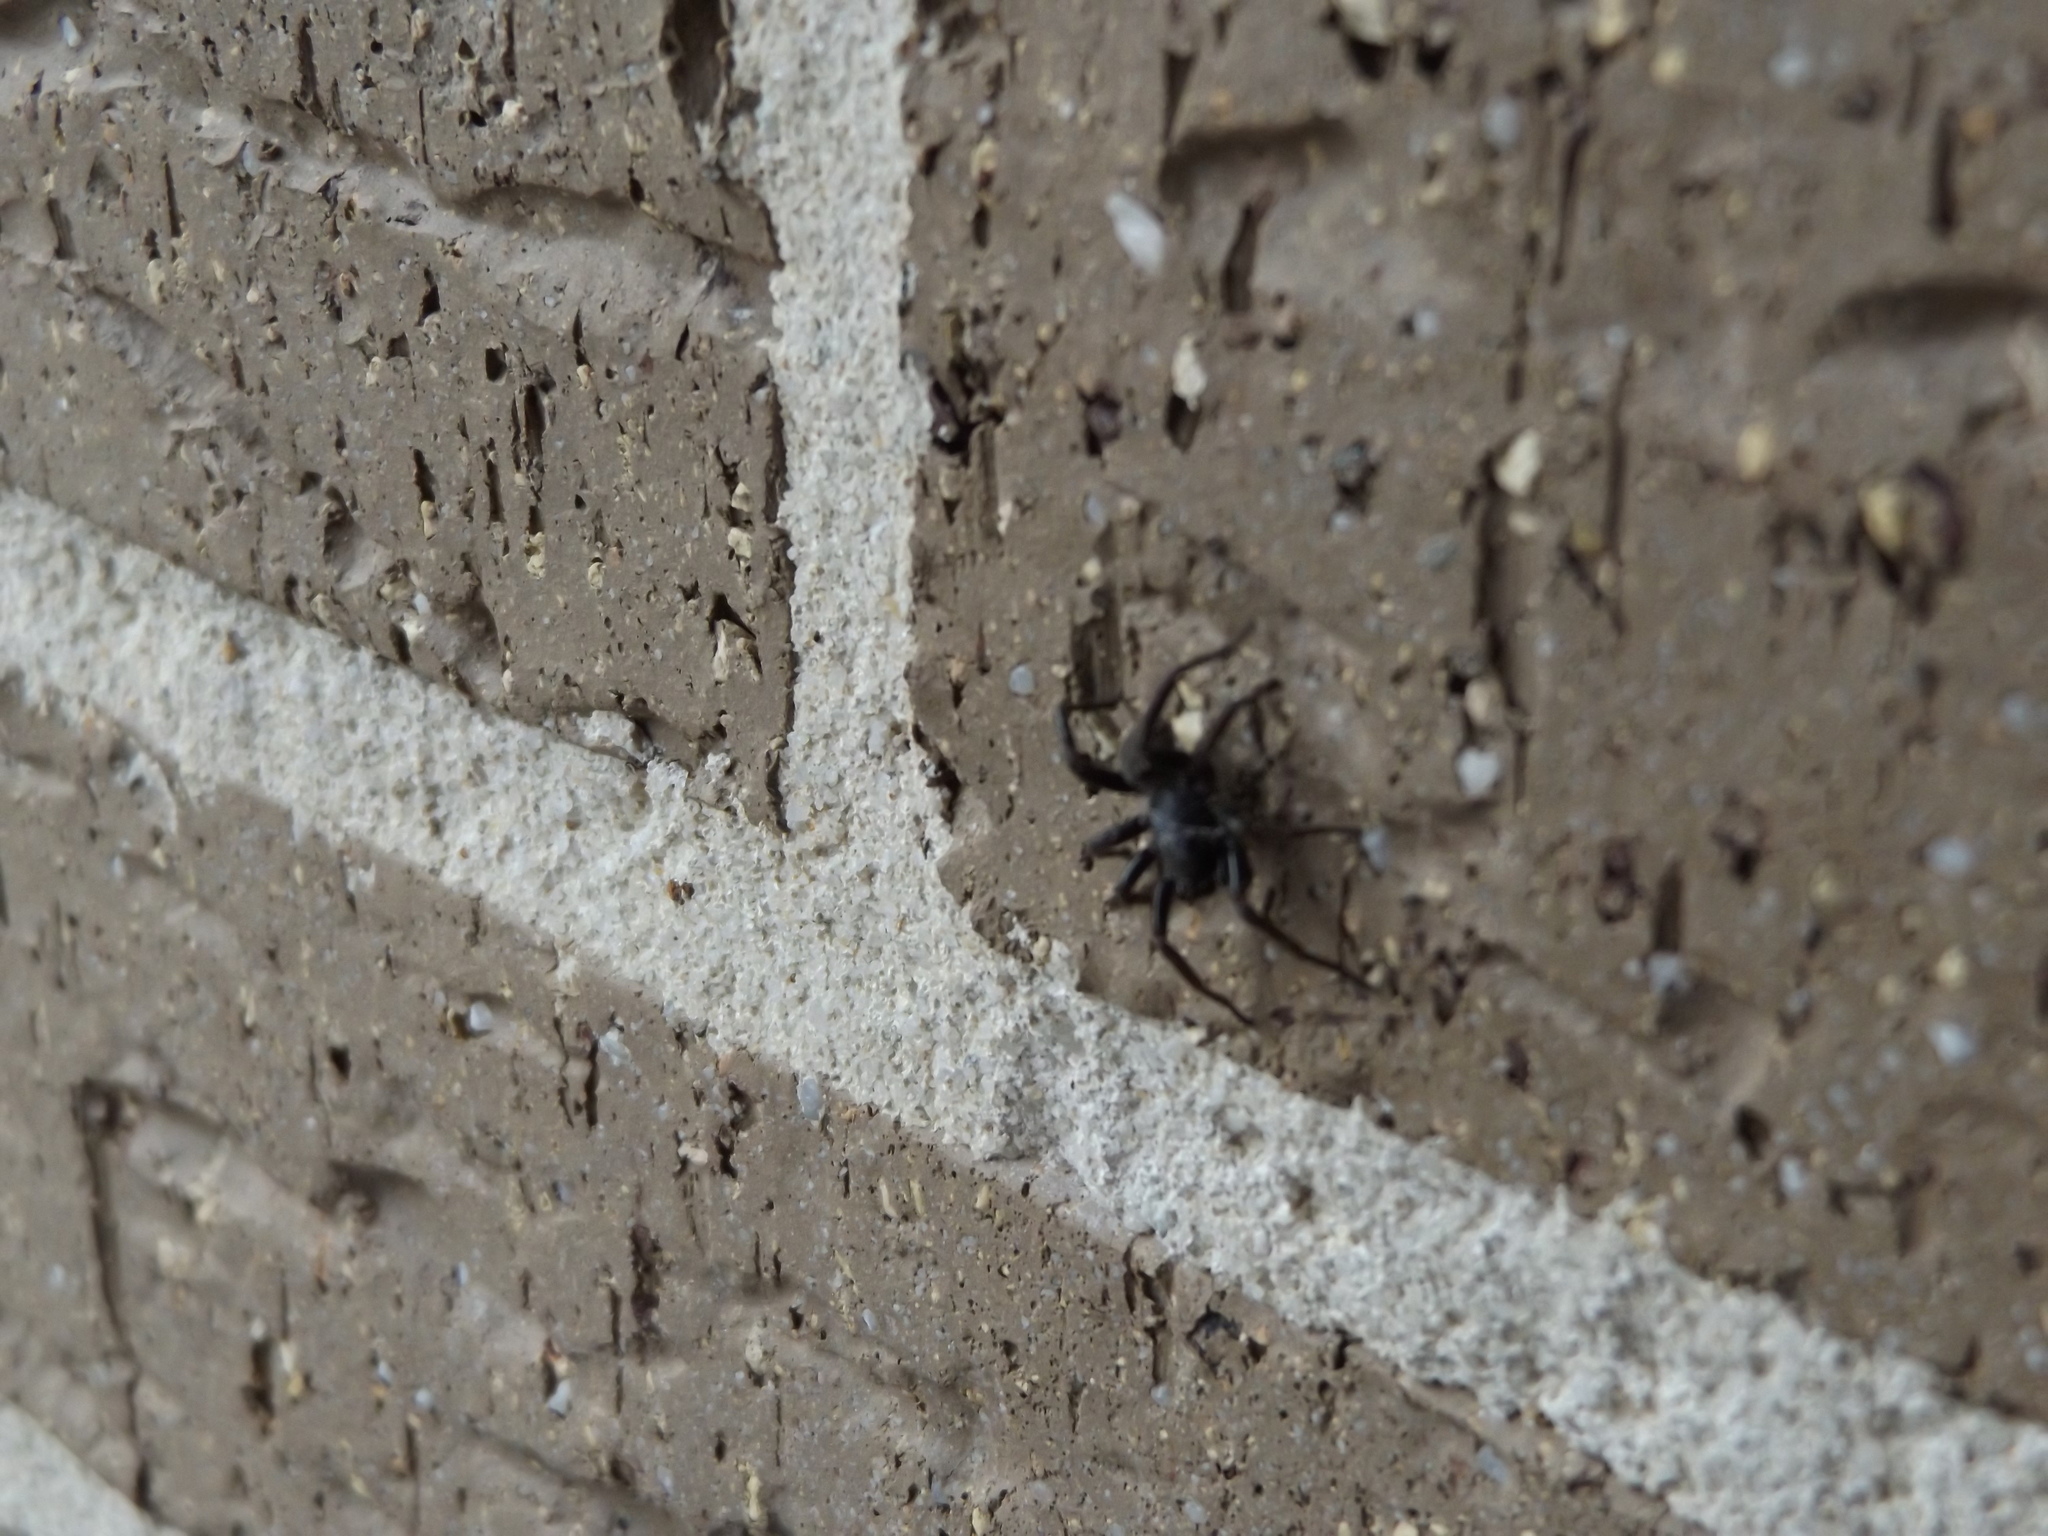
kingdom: Animalia
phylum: Arthropoda
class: Arachnida
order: Araneae
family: Desidae
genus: Badumna
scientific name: Badumna insignis
